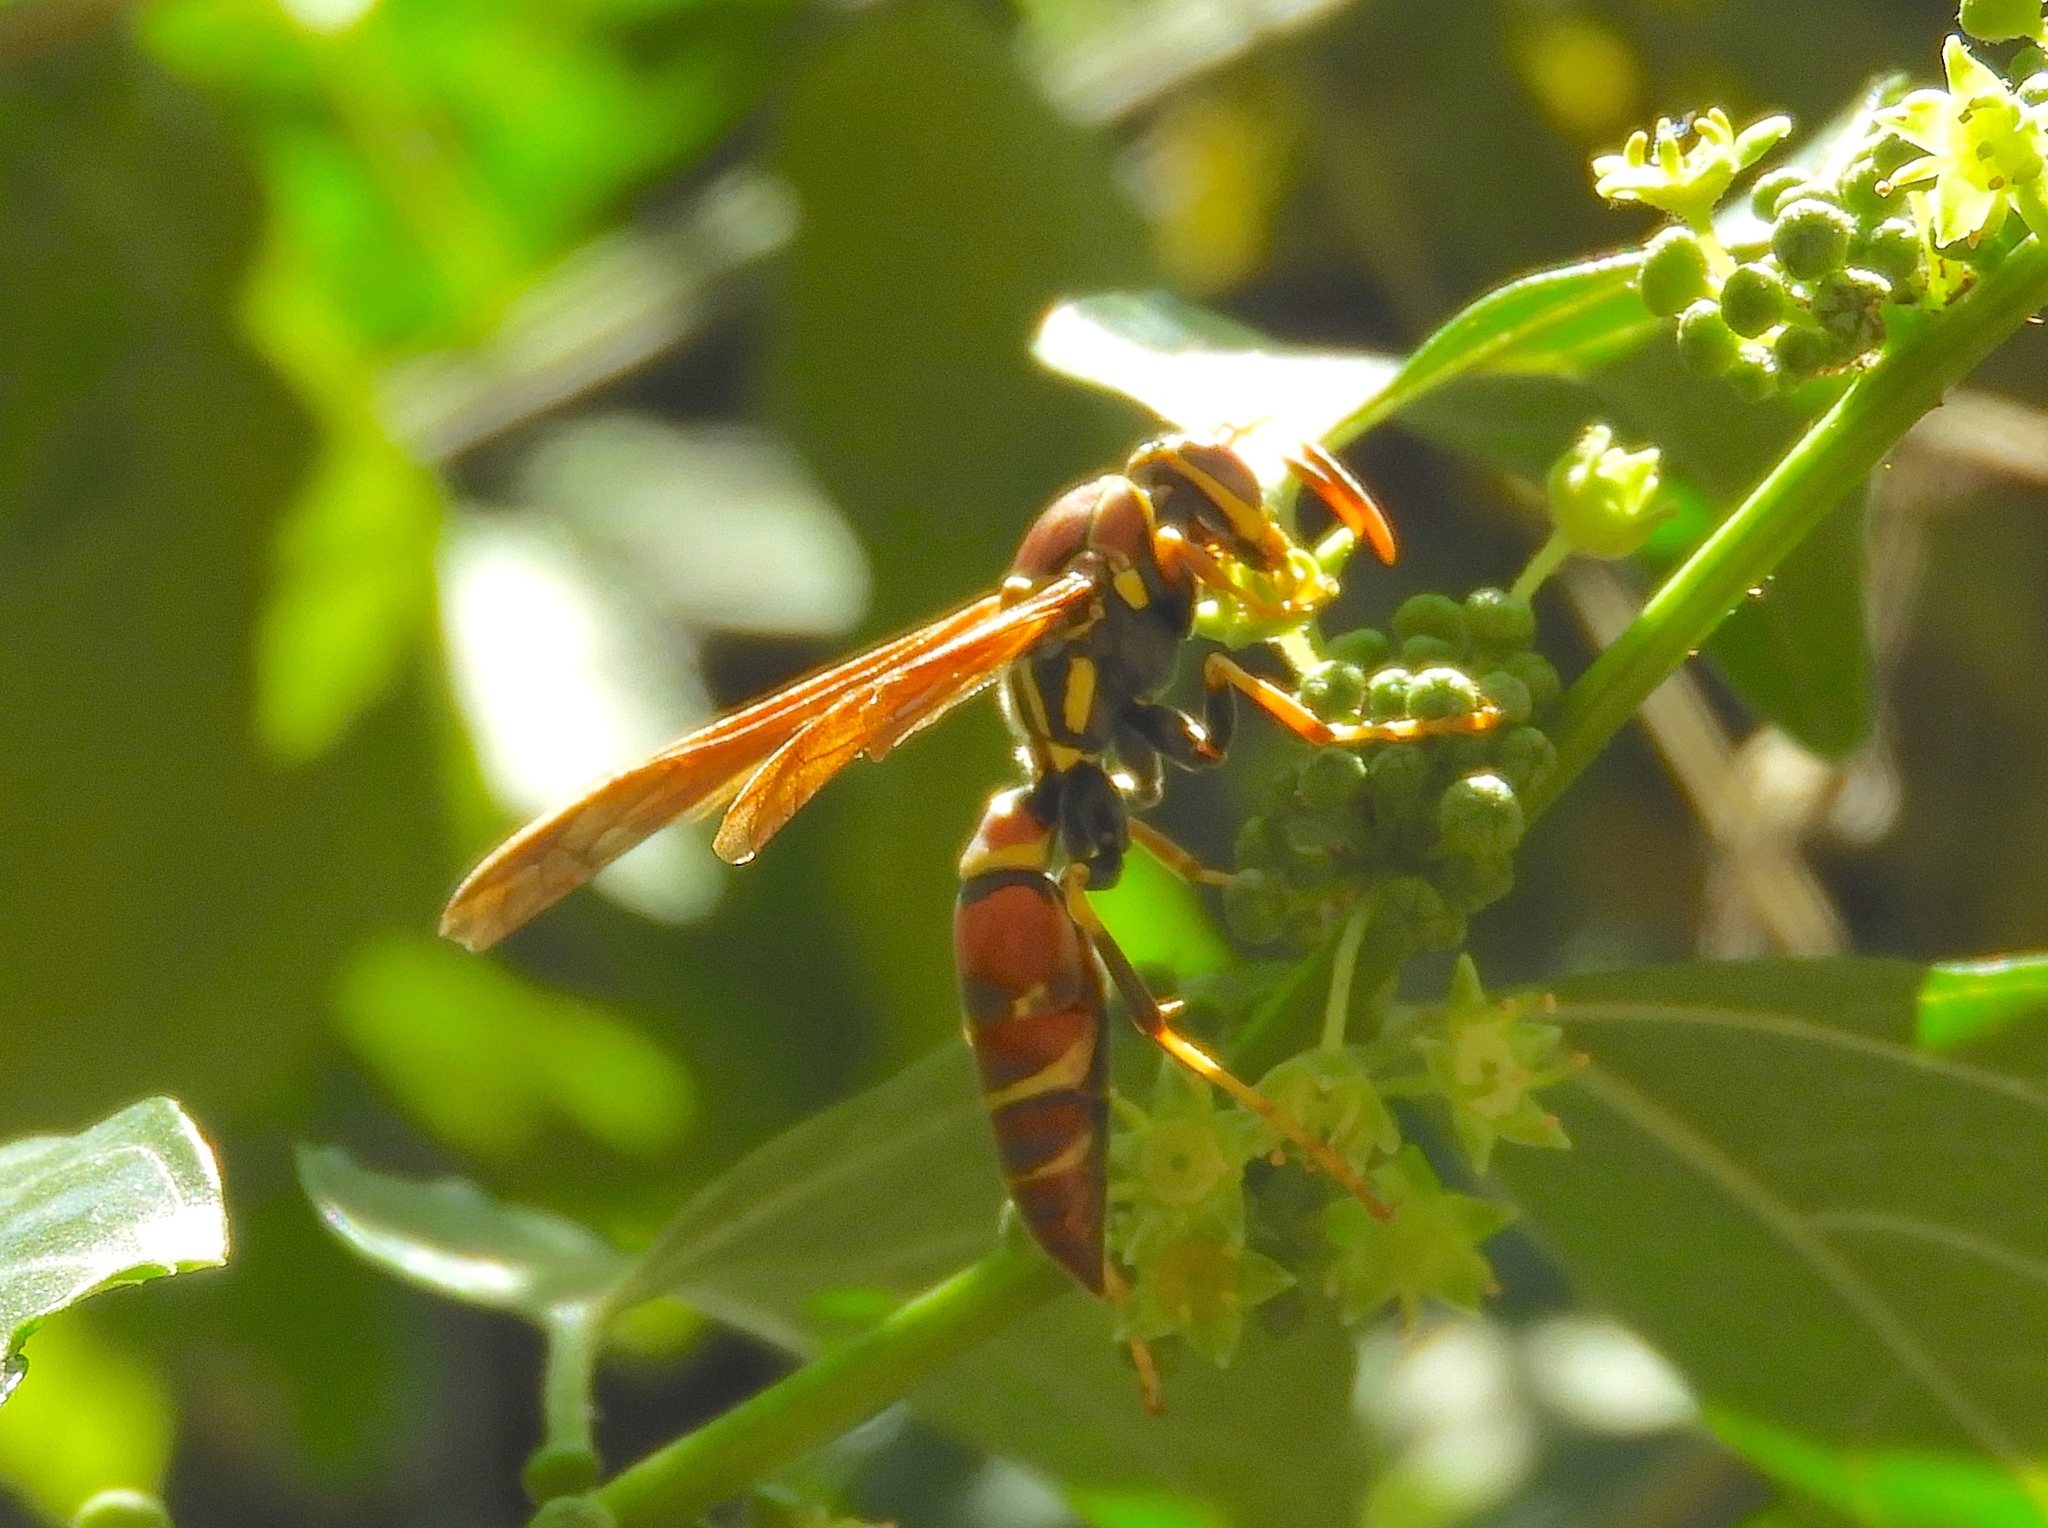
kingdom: Animalia
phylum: Arthropoda
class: Insecta
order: Hymenoptera
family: Eumenidae
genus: Polistes
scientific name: Polistes instabilis
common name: Unstable paper wasp
